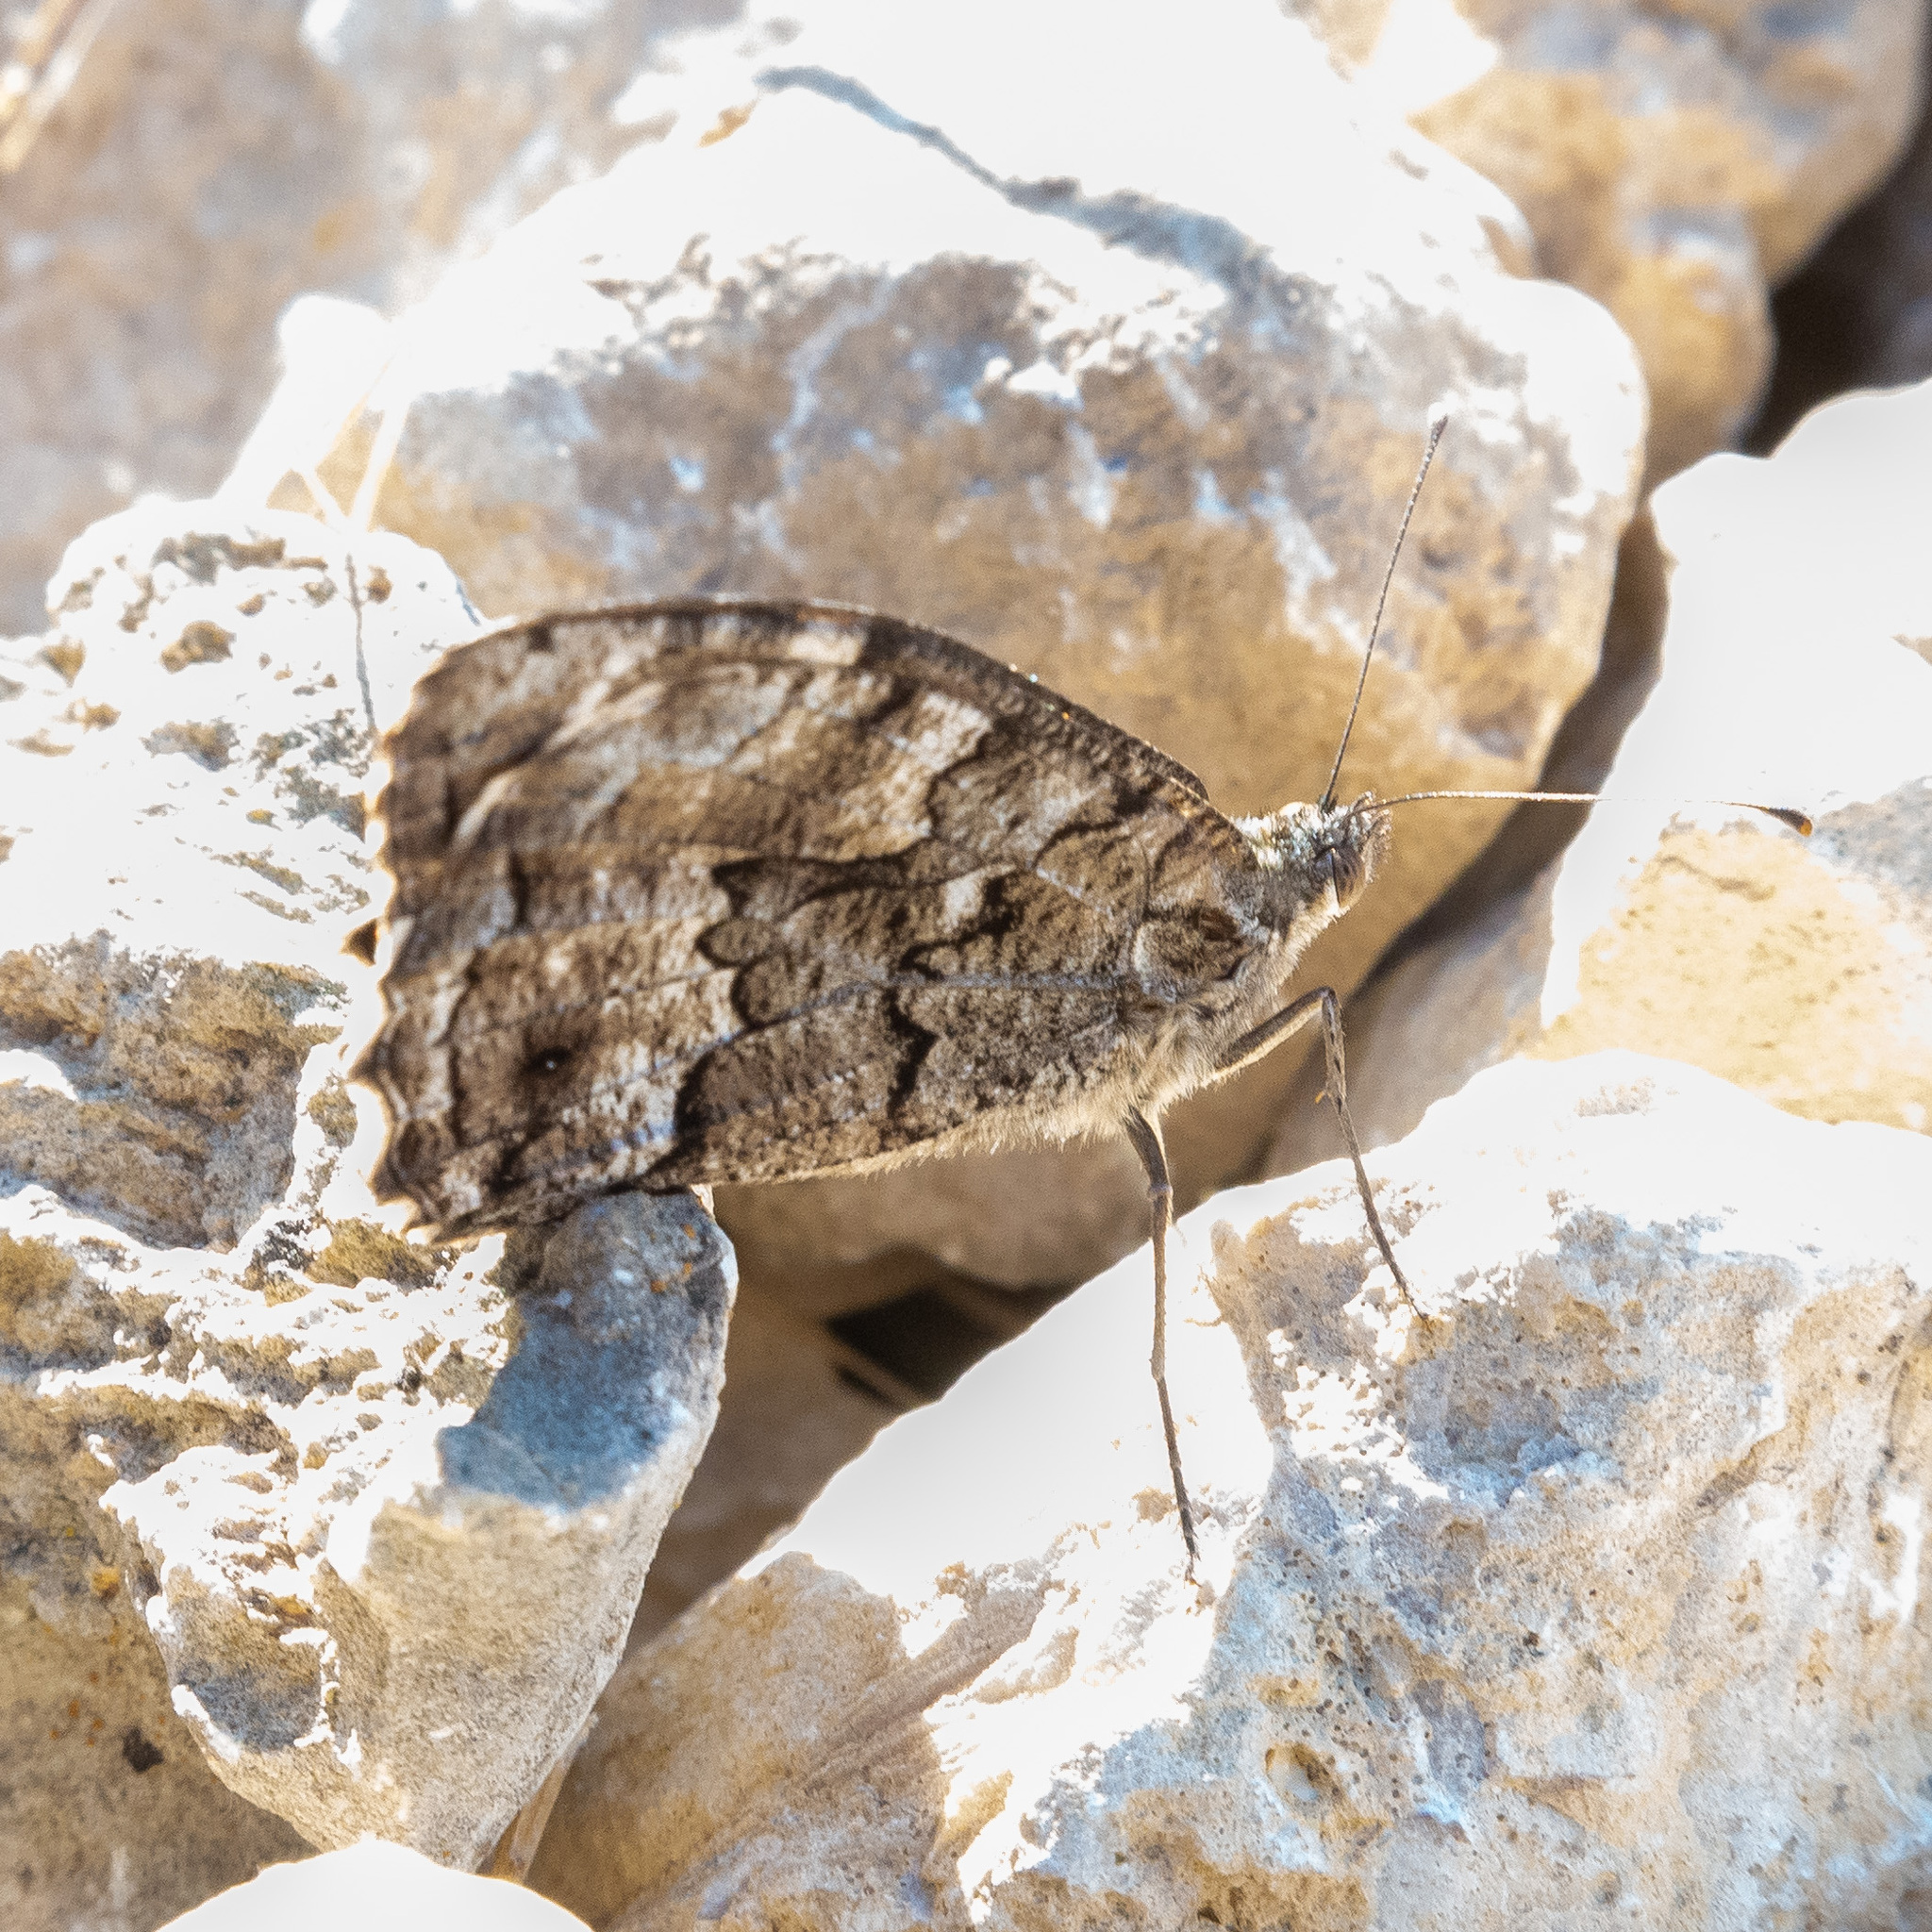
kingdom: Animalia
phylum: Arthropoda
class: Insecta
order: Lepidoptera
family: Nymphalidae
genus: Hipparchia
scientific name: Hipparchia semele
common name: Grayling
